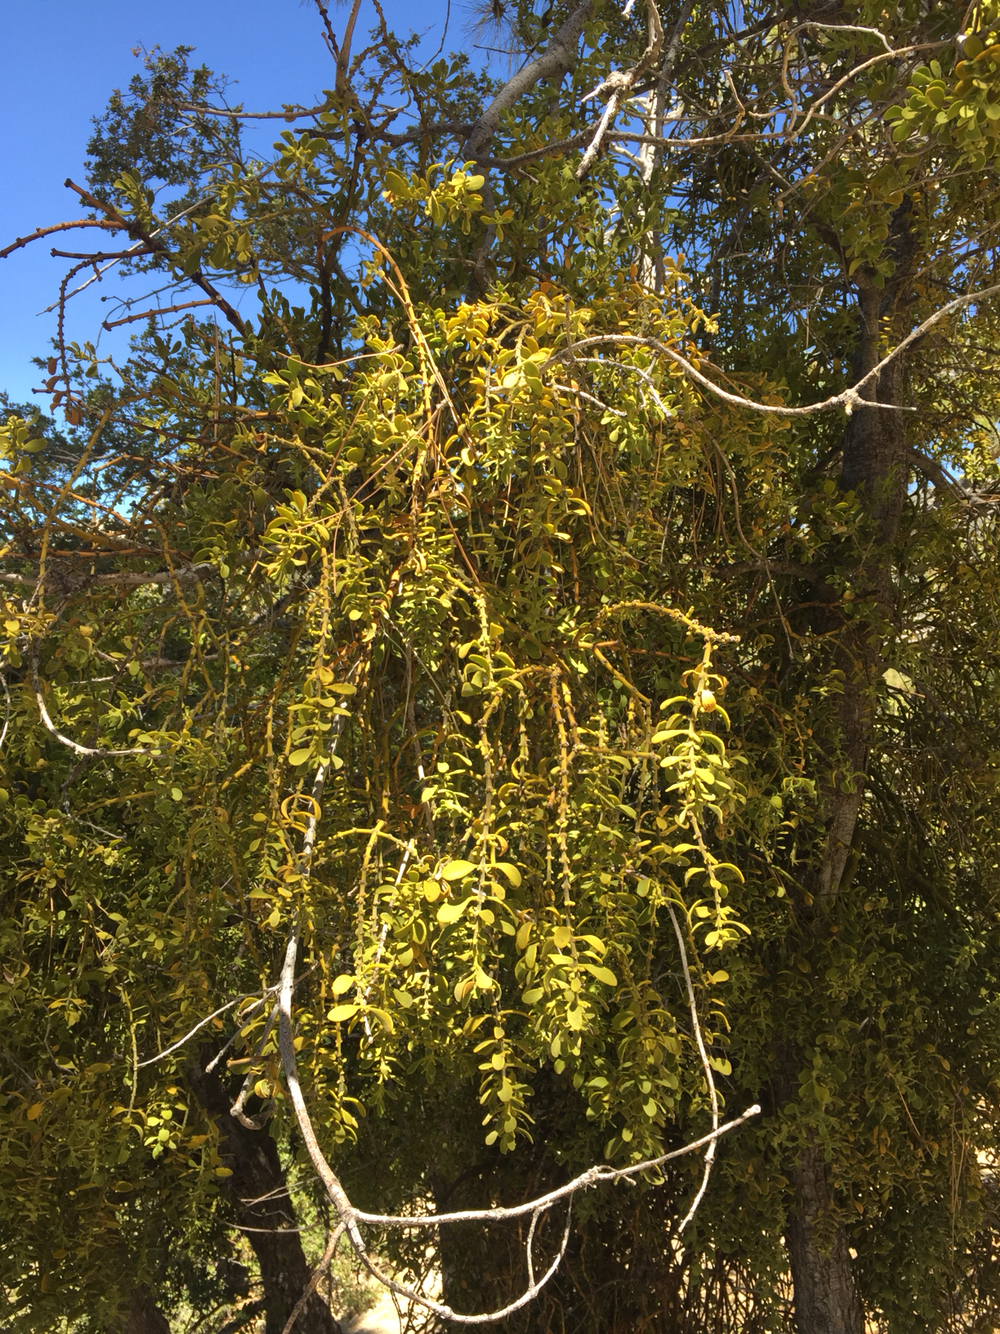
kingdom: Plantae
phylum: Tracheophyta
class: Magnoliopsida
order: Santalales
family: Viscaceae
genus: Phoradendron
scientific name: Phoradendron leucarpum
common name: Pacific mistletoe
